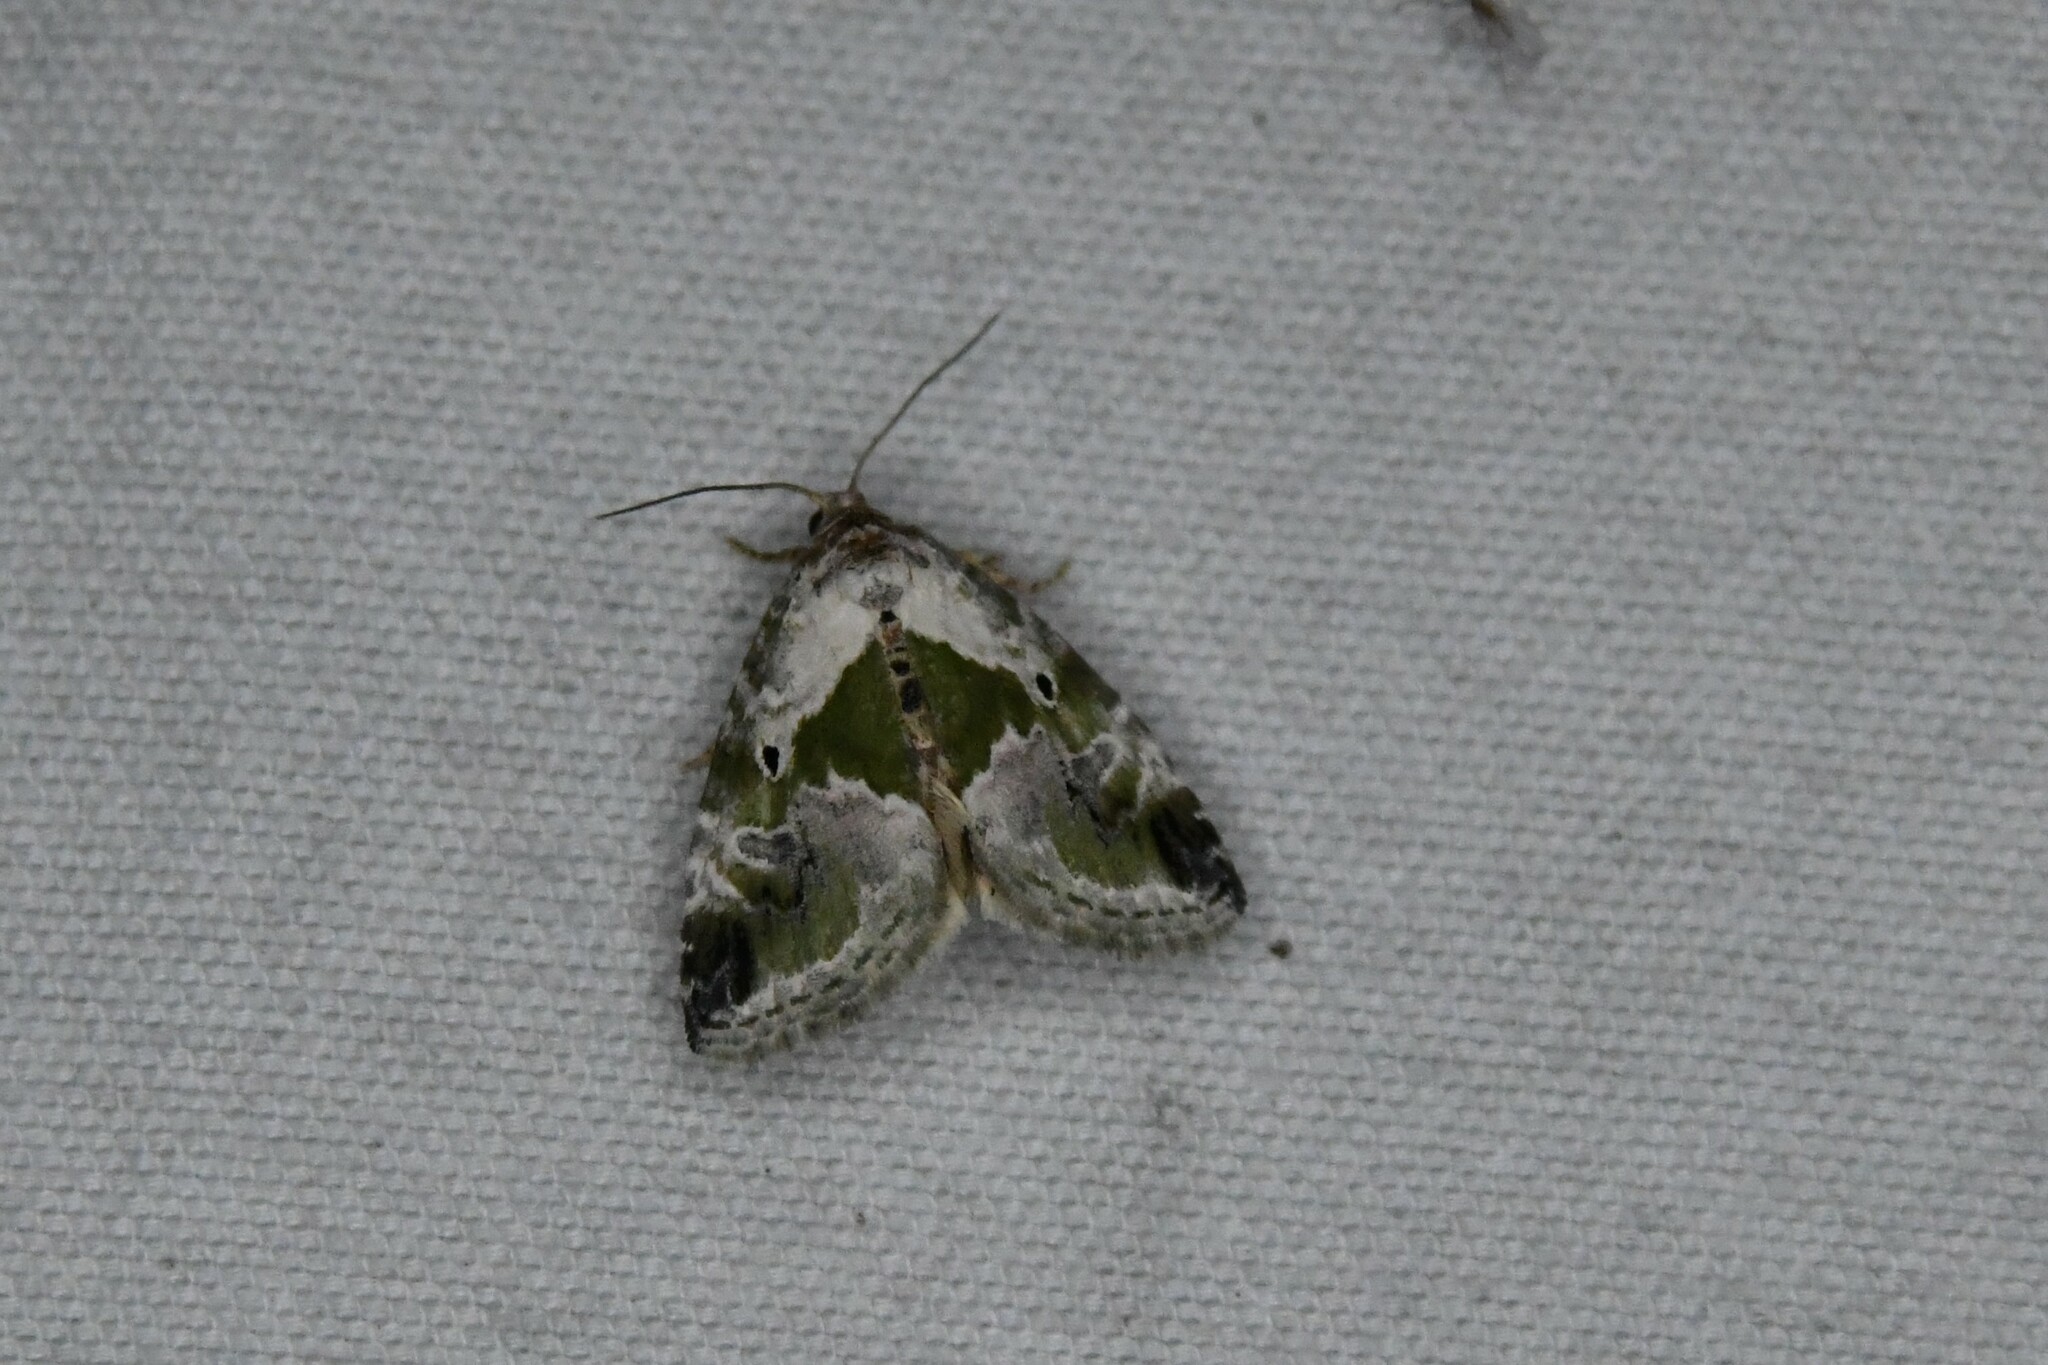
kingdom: Animalia
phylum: Arthropoda
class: Insecta
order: Lepidoptera
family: Noctuidae
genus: Maliattha
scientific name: Maliattha synochitis
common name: Black-dotted glyph
